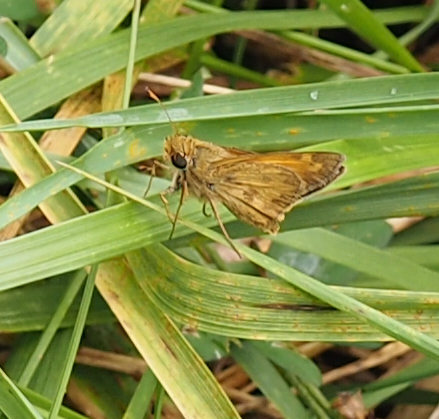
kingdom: Animalia
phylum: Arthropoda
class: Insecta
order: Lepidoptera
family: Hesperiidae
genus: Atalopedes
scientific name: Atalopedes
